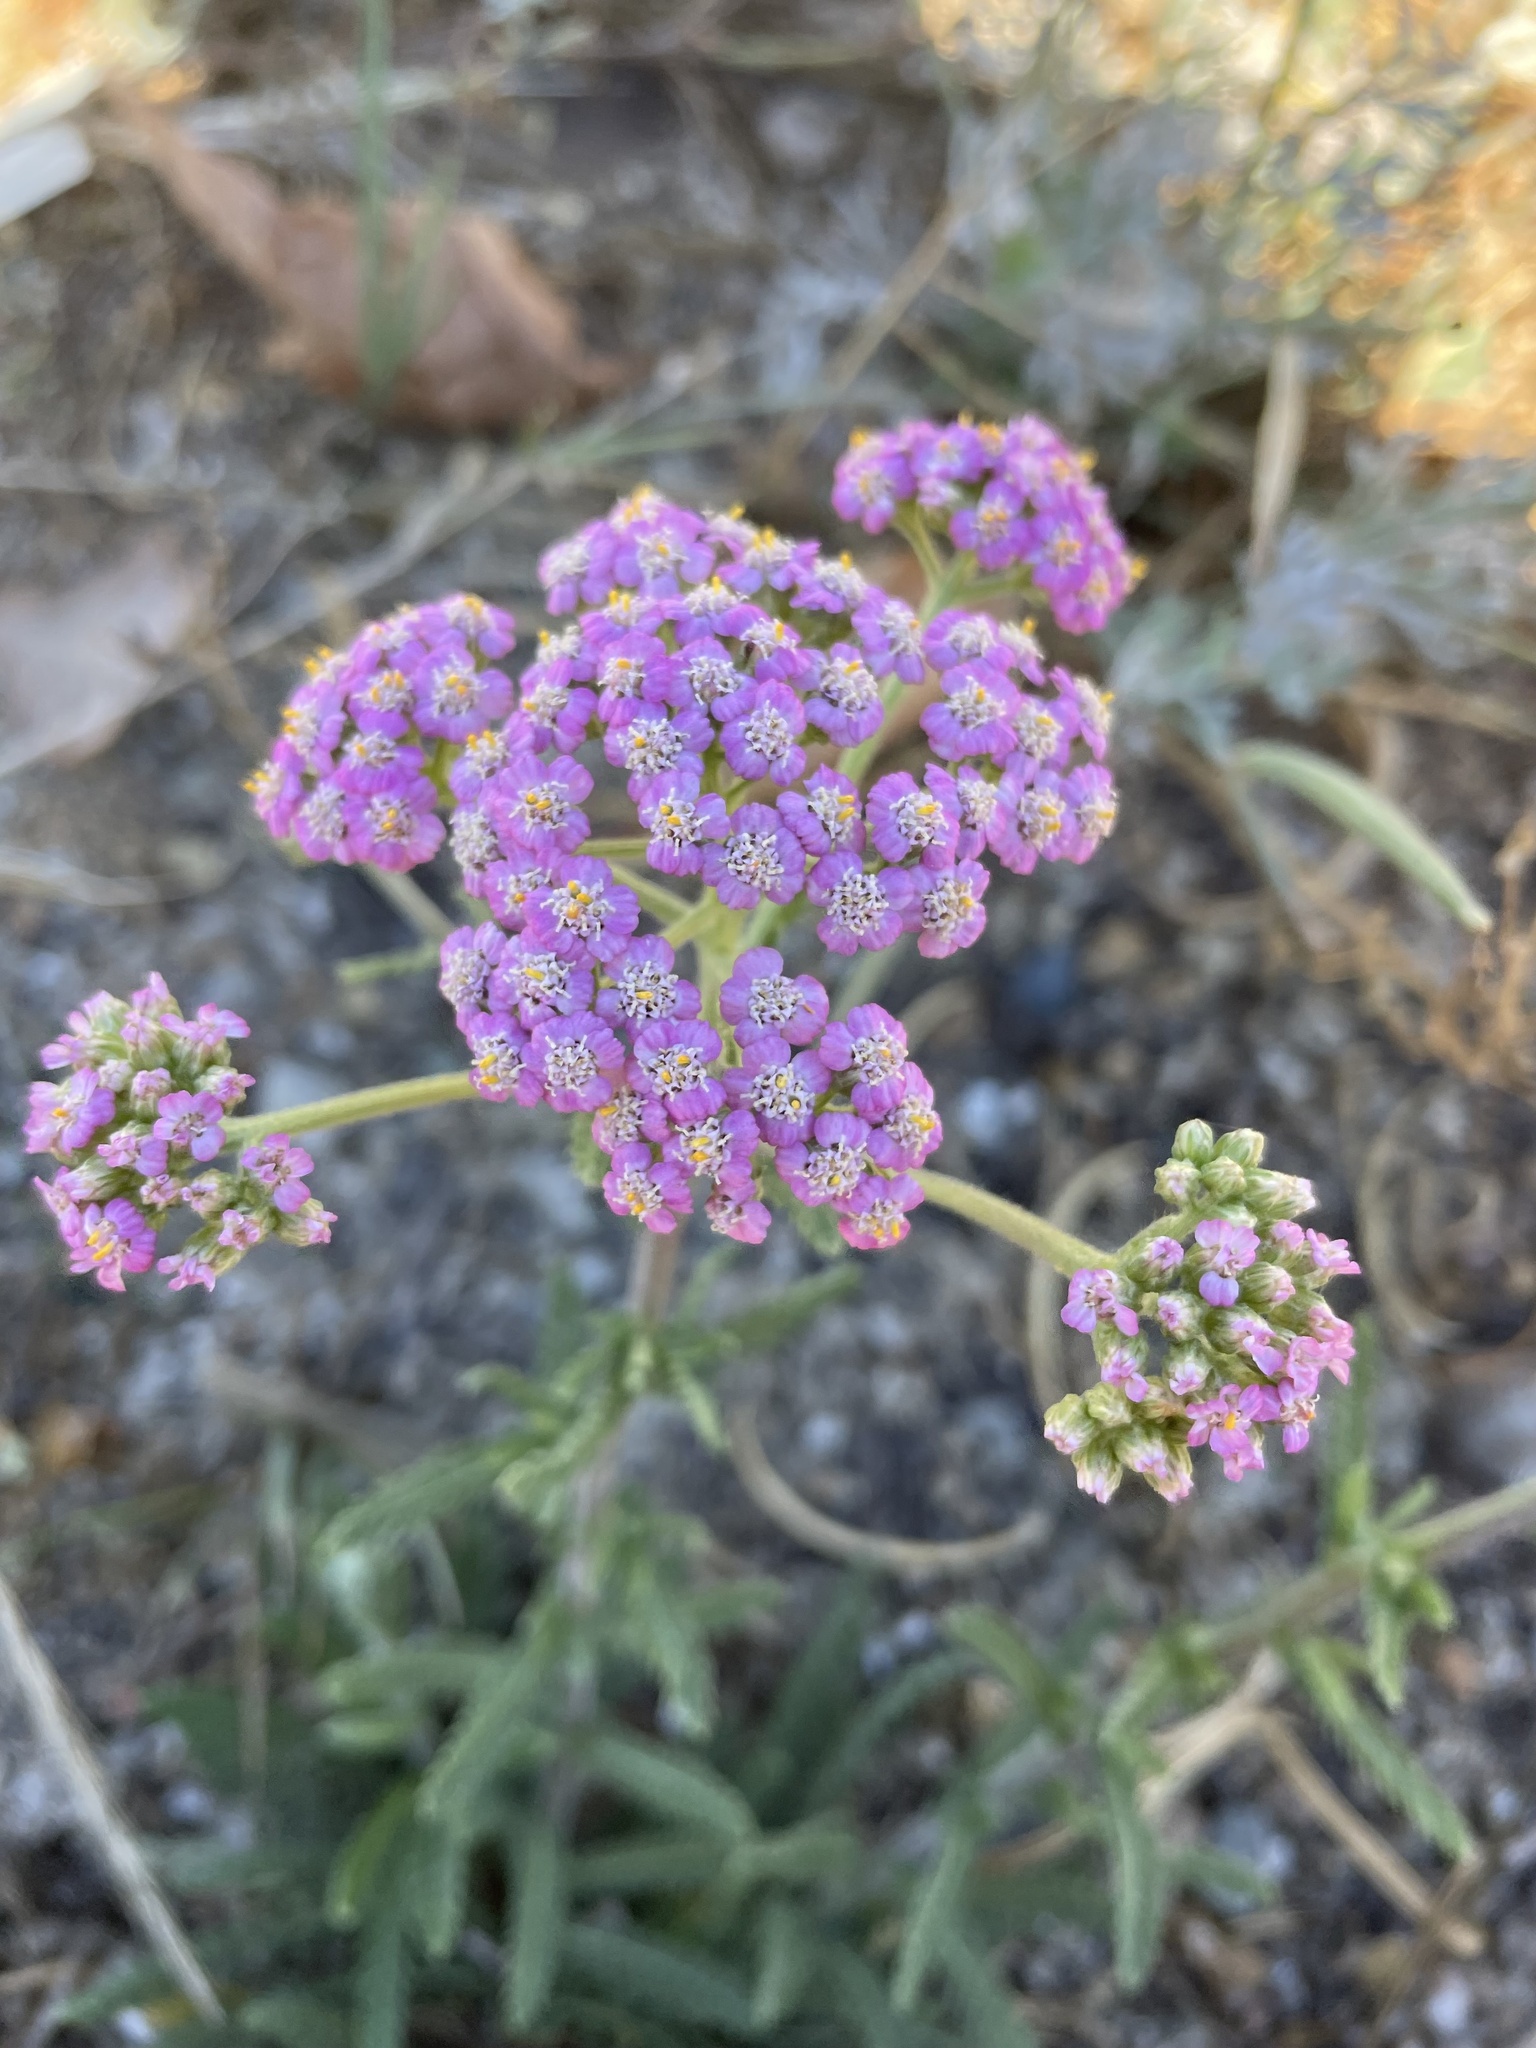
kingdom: Plantae
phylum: Tracheophyta
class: Magnoliopsida
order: Asterales
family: Asteraceae
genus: Achillea
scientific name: Achillea millefolium
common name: Yarrow
